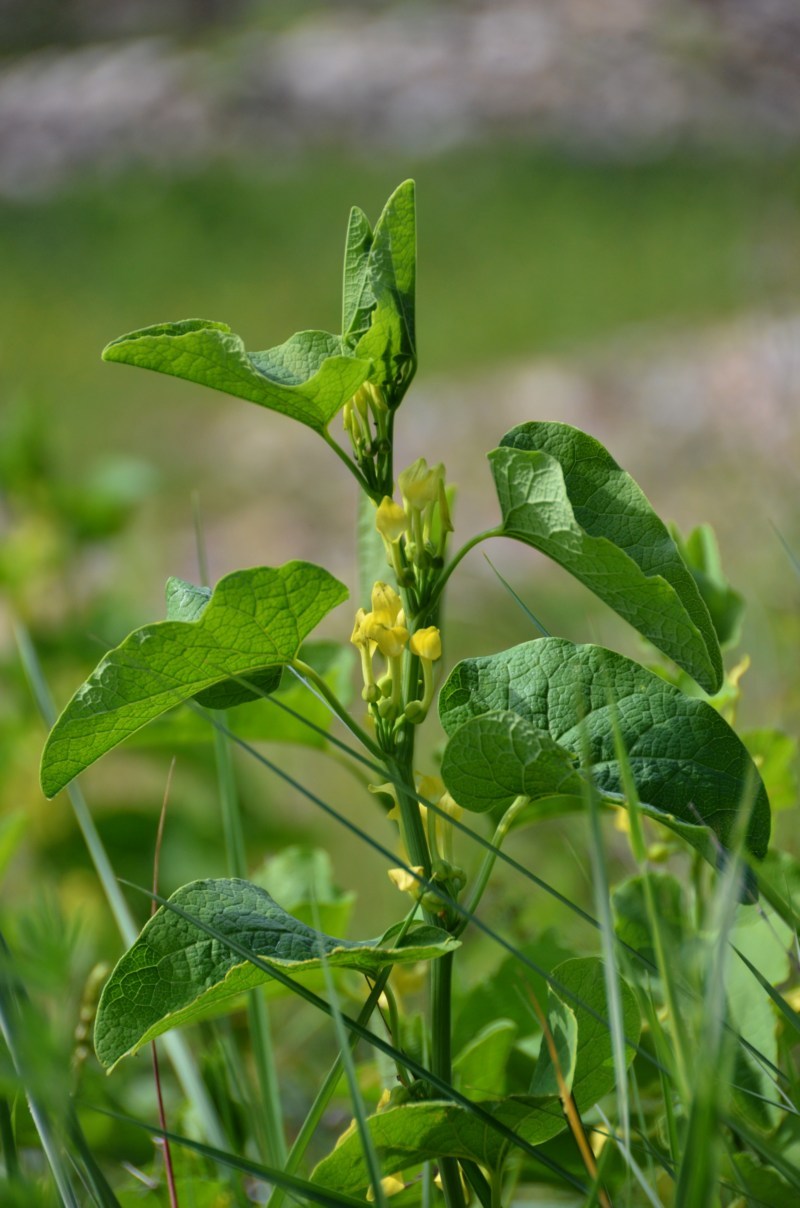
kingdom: Plantae
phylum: Tracheophyta
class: Magnoliopsida
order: Piperales
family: Aristolochiaceae
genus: Aristolochia
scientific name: Aristolochia clematitis
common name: Birthwort
